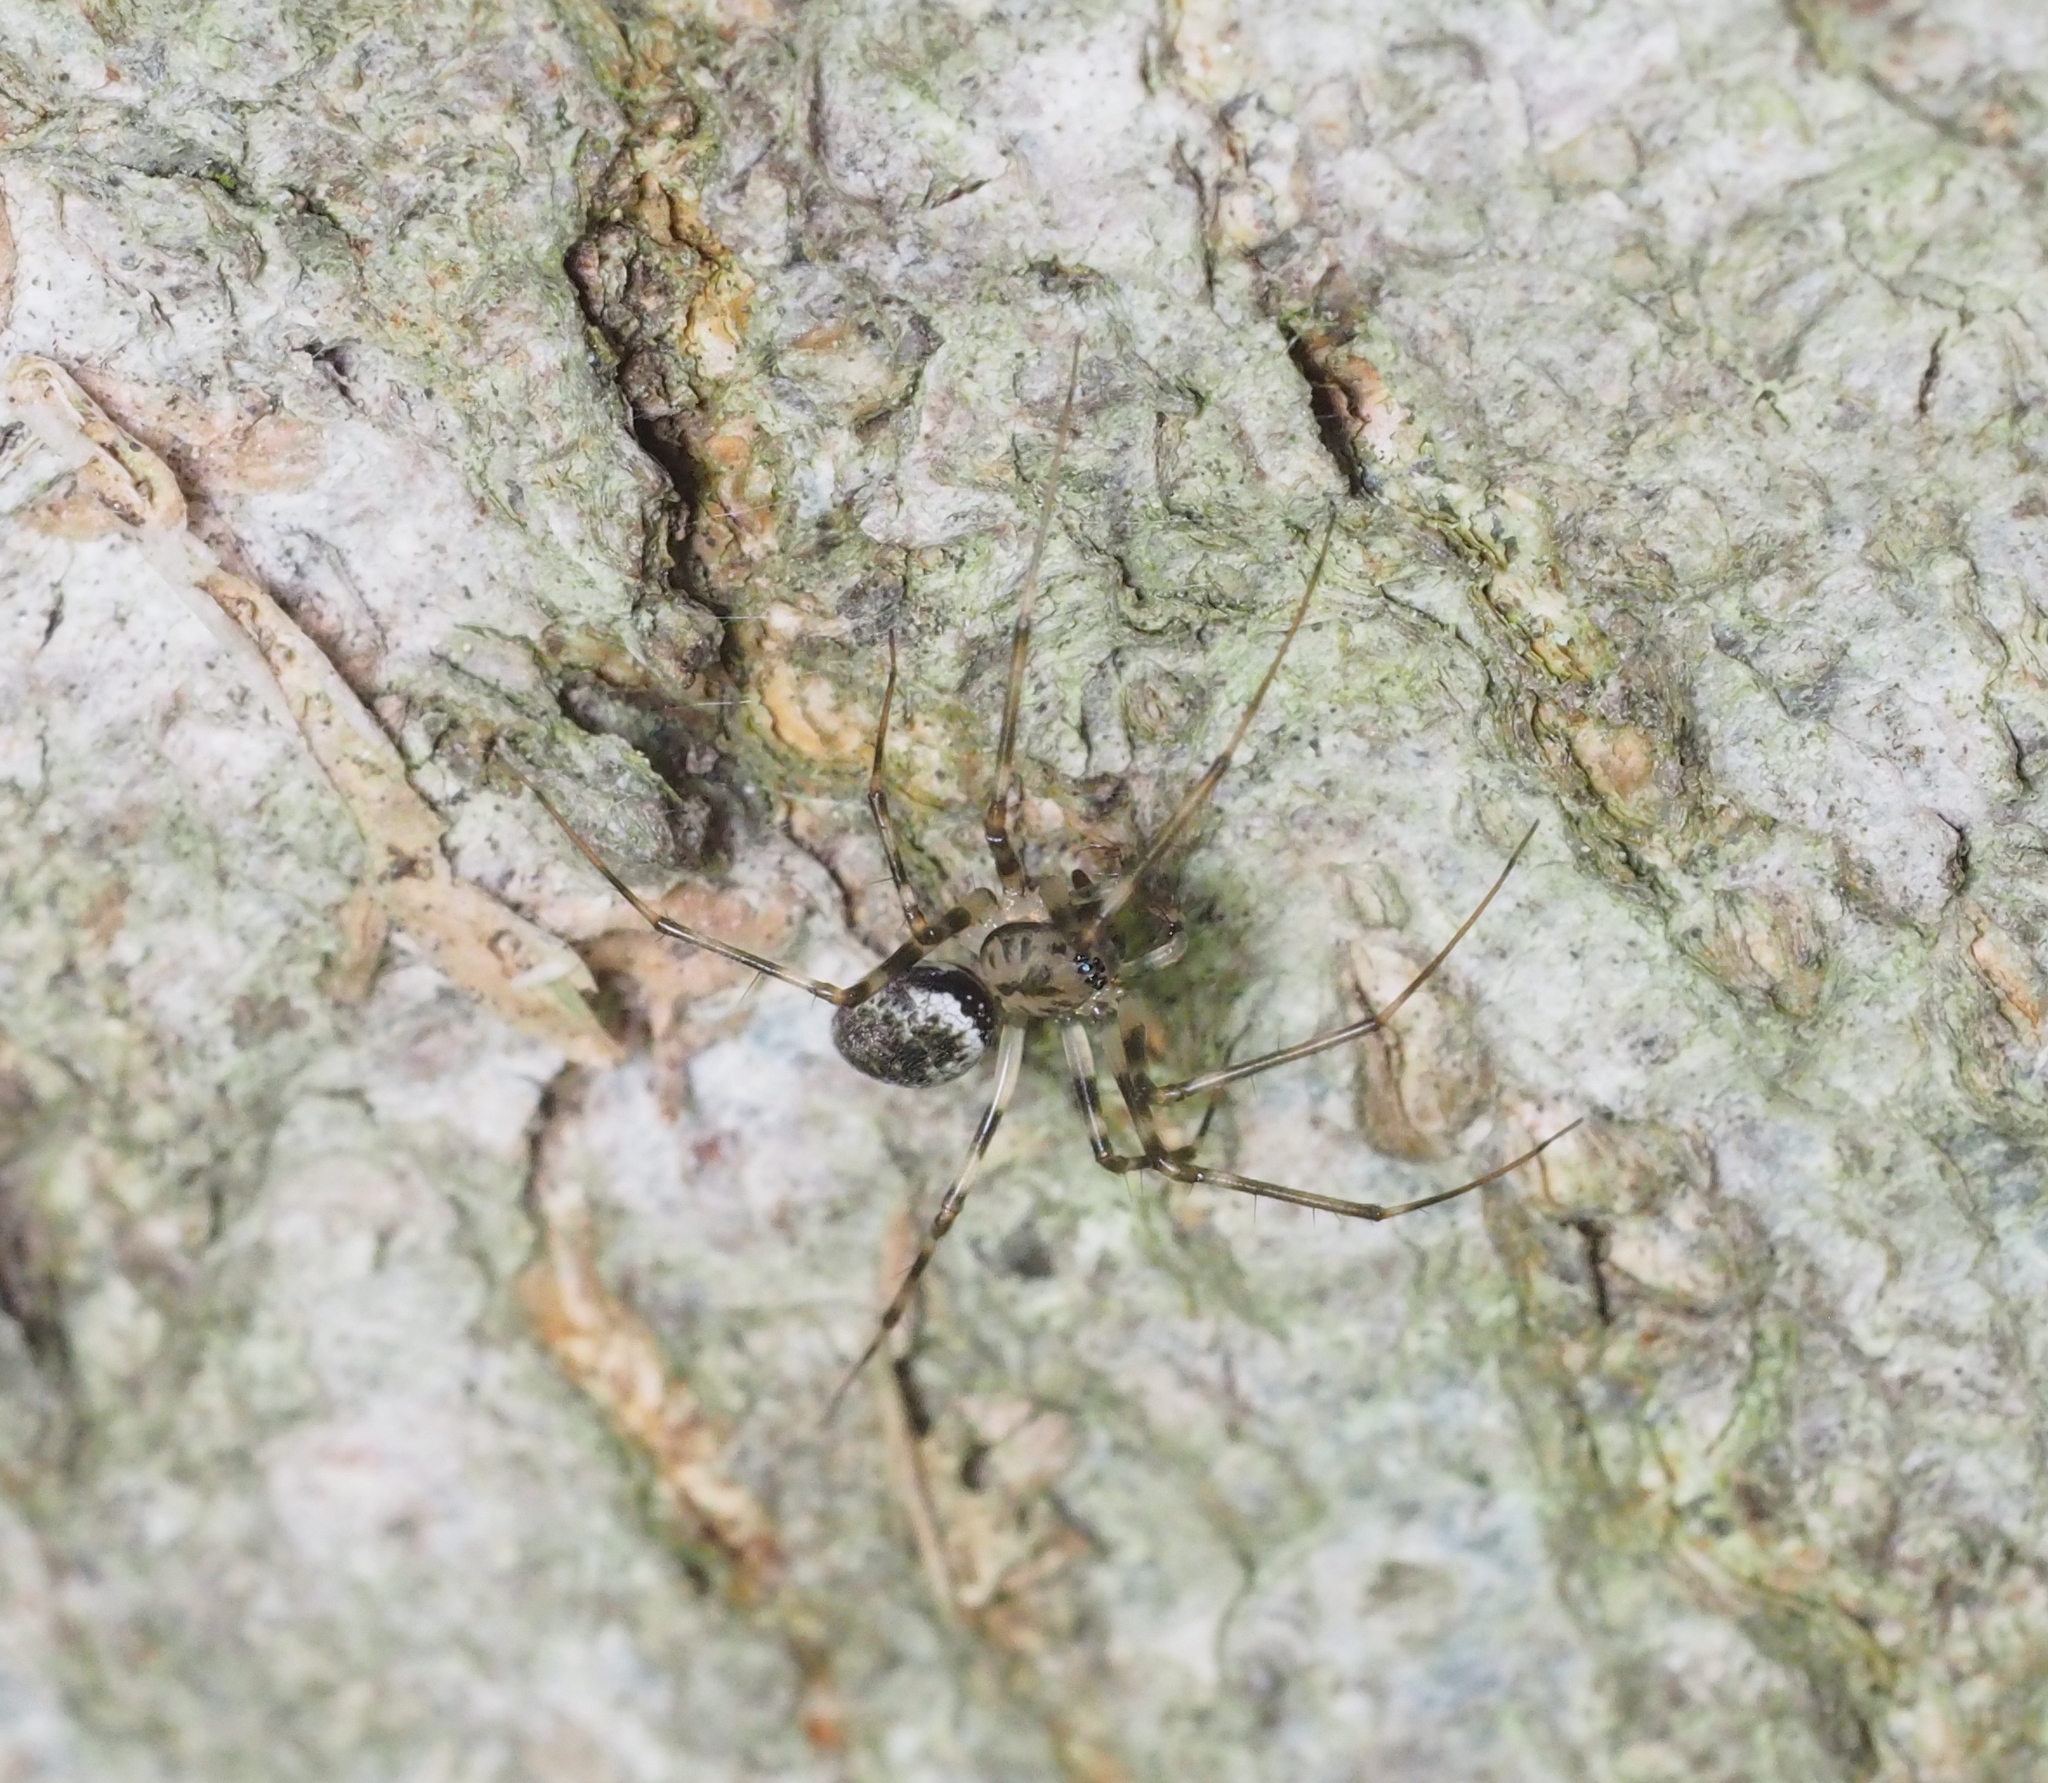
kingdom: Animalia
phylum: Arthropoda
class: Arachnida
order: Araneae
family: Linyphiidae
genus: Drapetisca
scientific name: Drapetisca socialis
